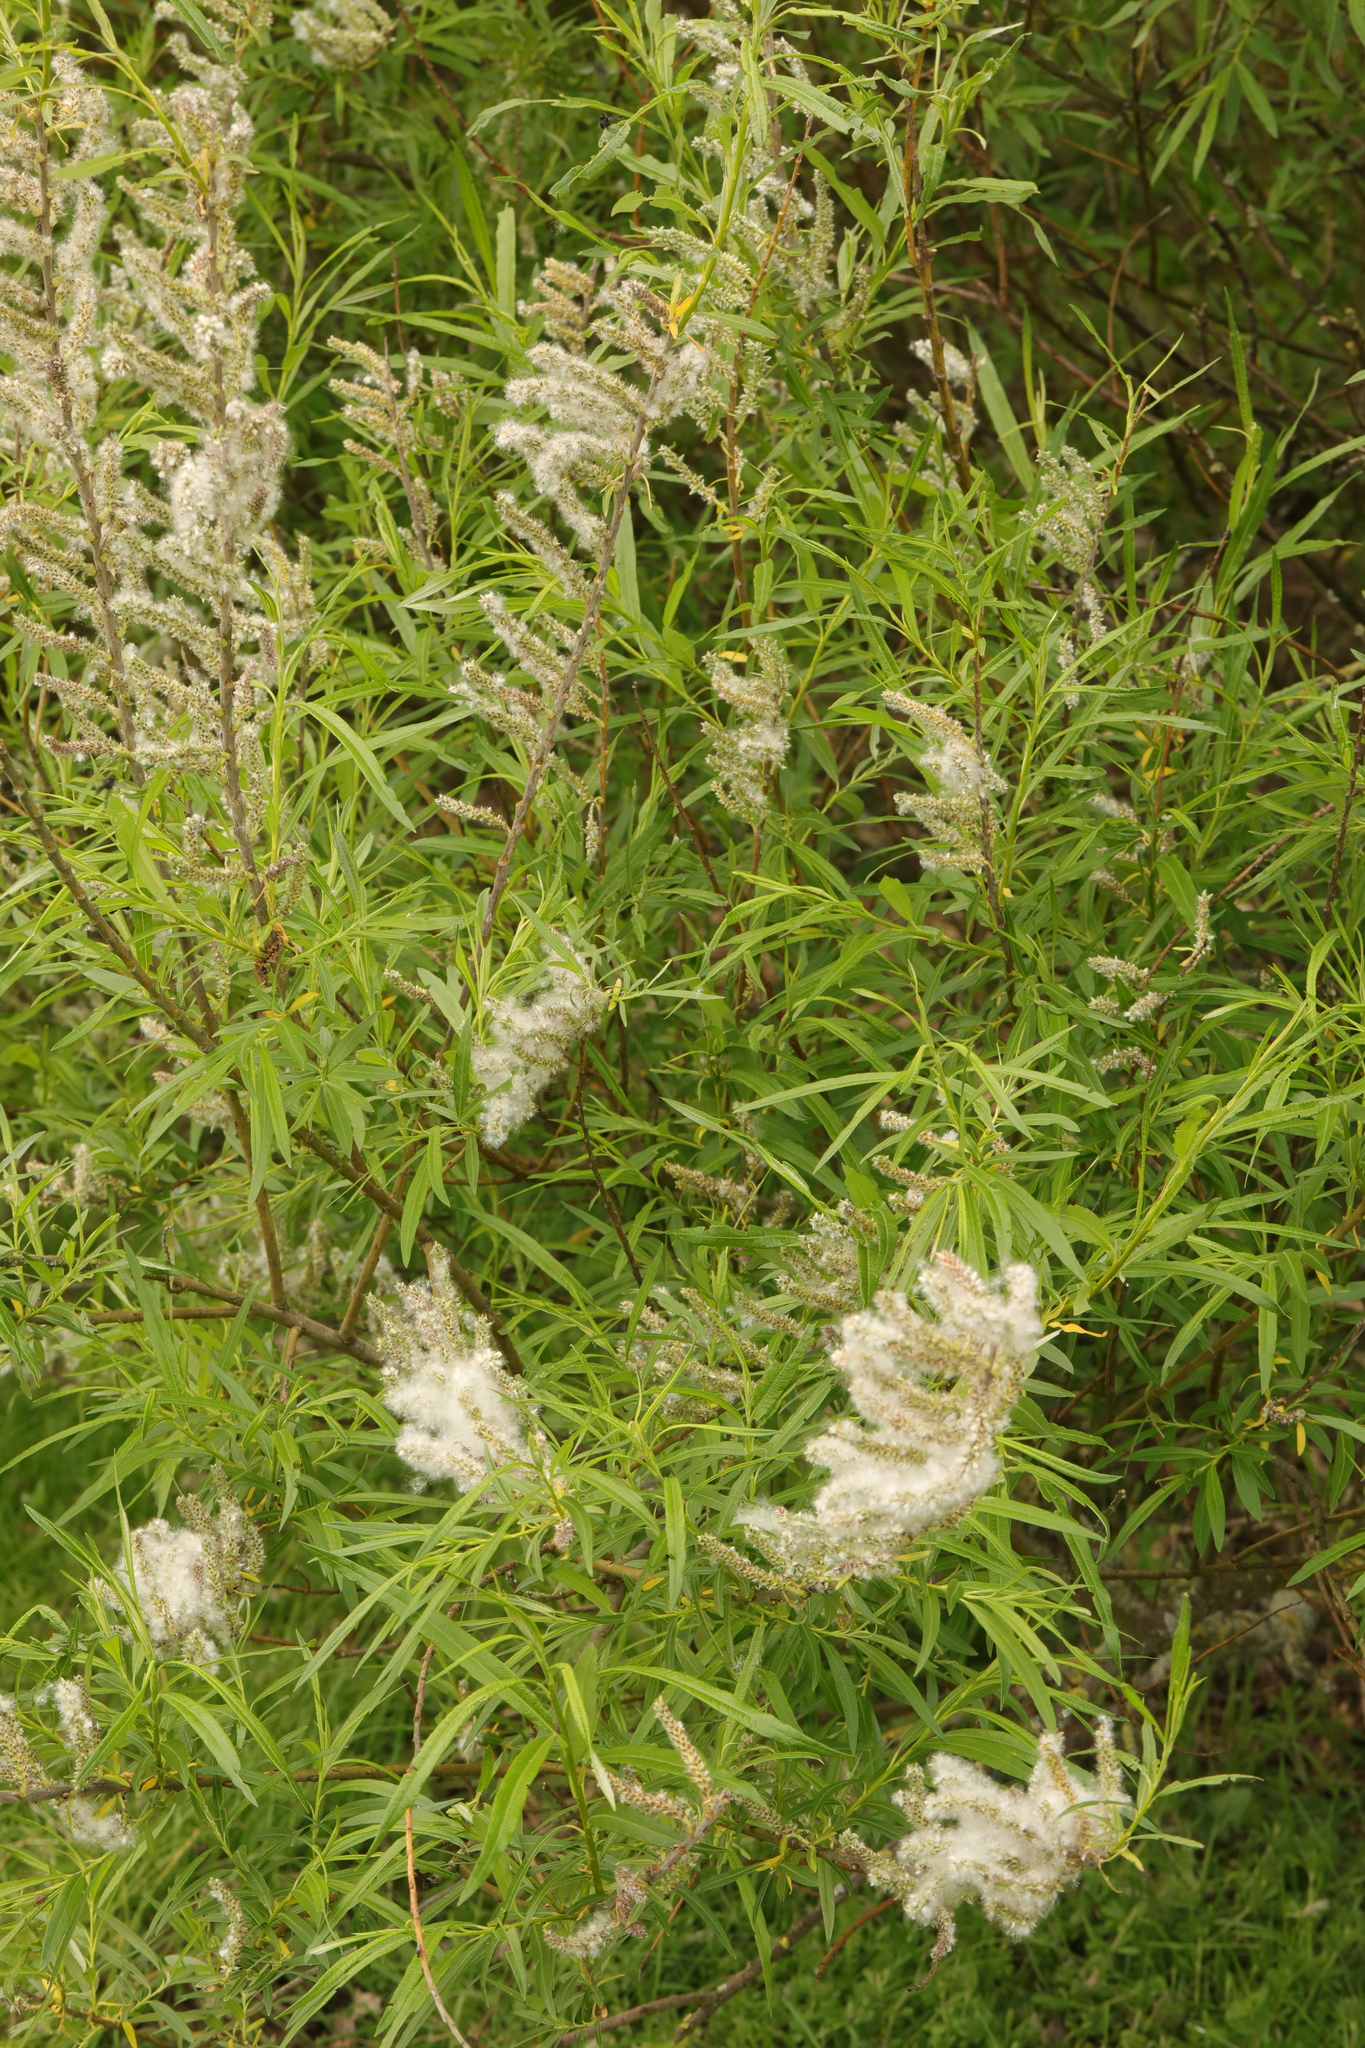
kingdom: Plantae
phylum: Tracheophyta
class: Magnoliopsida
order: Malpighiales
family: Salicaceae
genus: Salix
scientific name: Salix viminalis
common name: Osier
